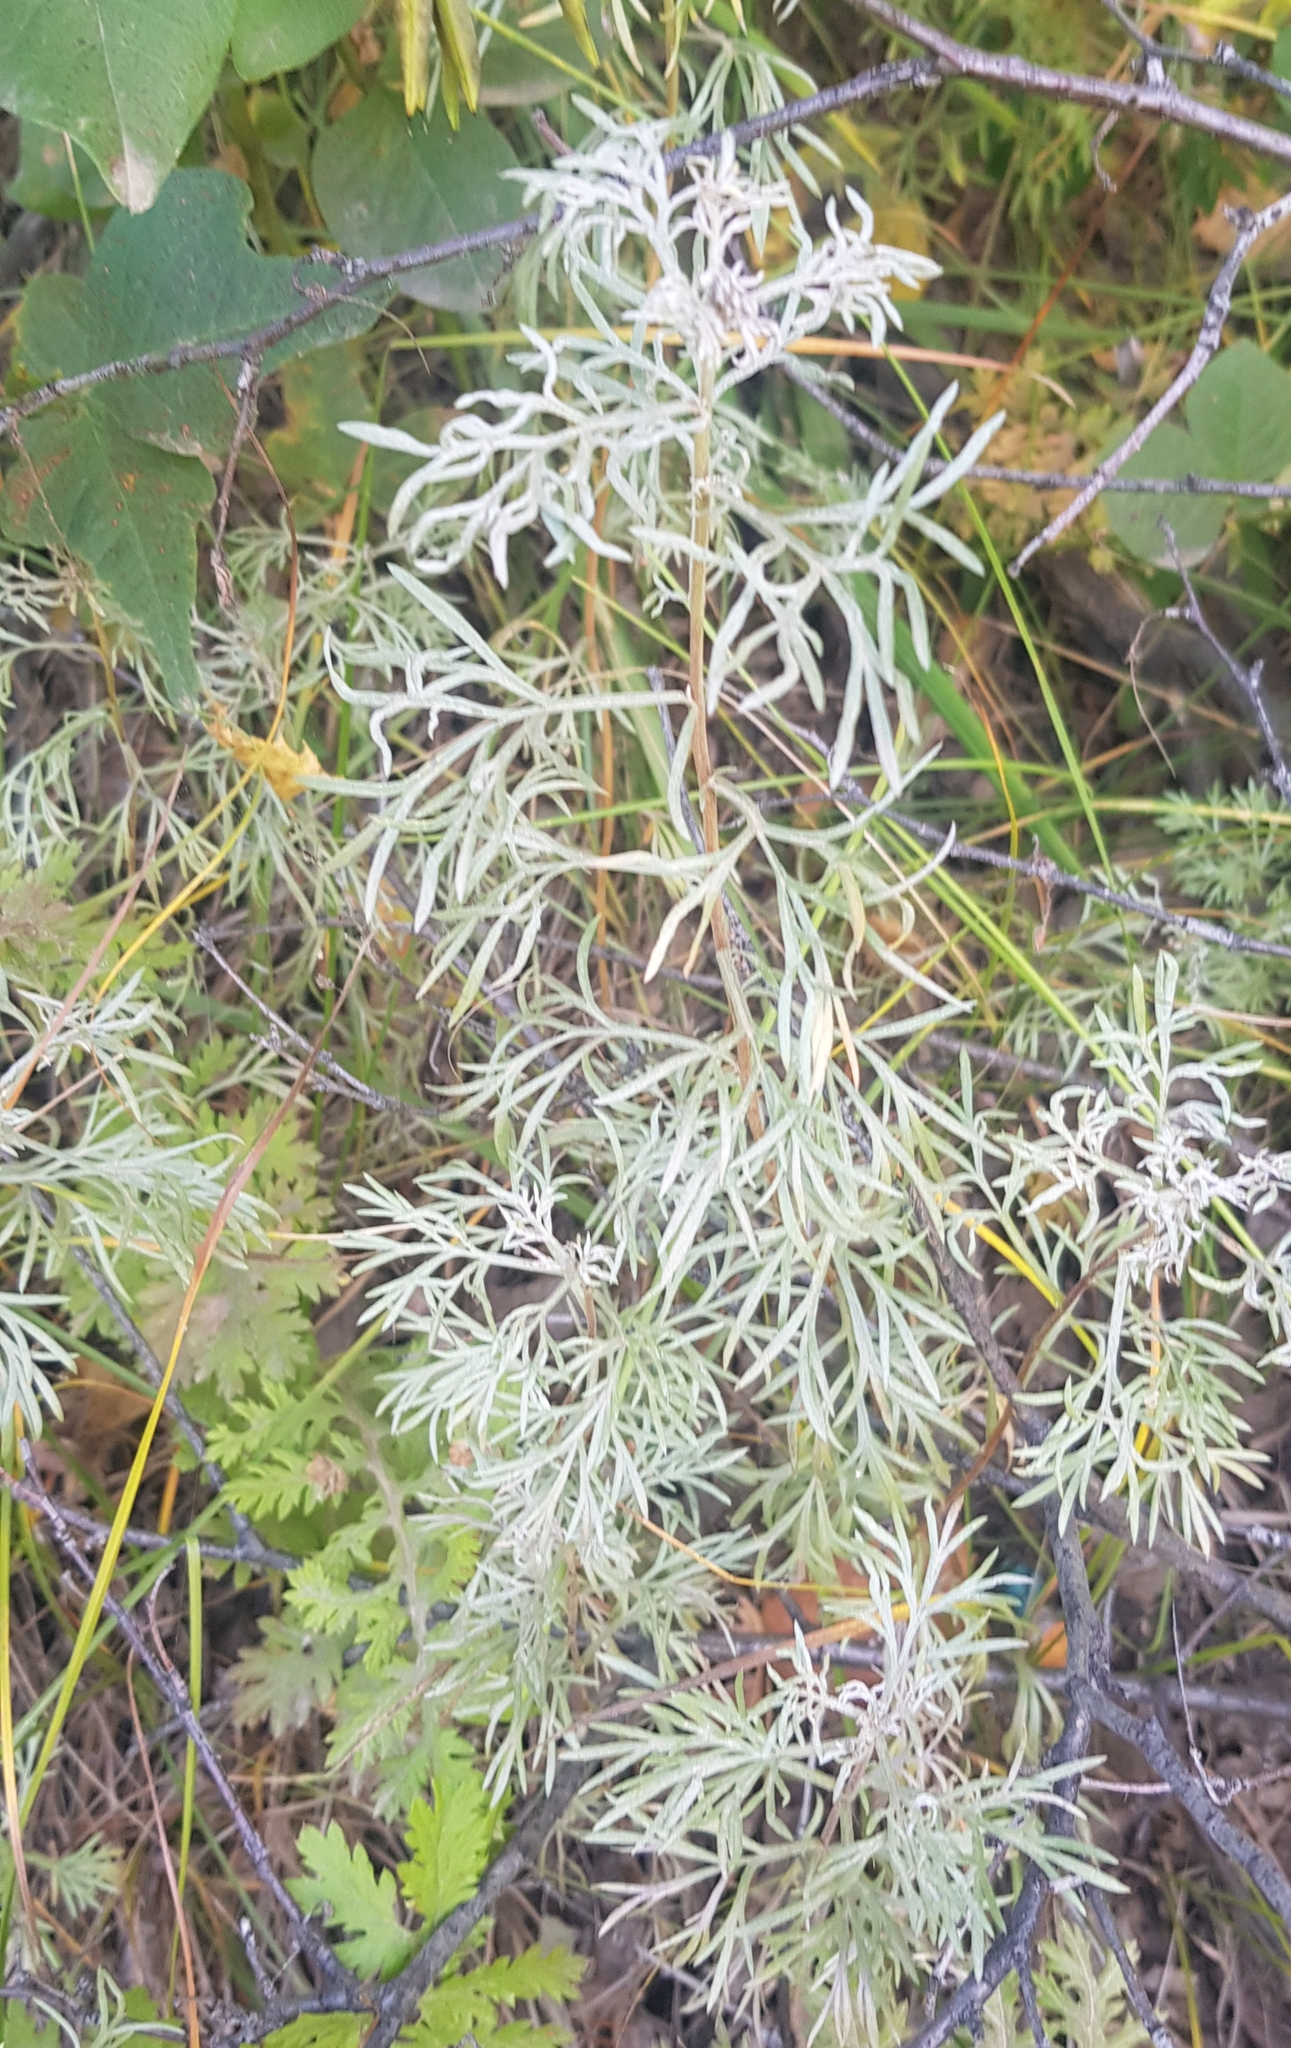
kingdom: Plantae
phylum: Tracheophyta
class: Magnoliopsida
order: Asterales
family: Asteraceae
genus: Artemisia
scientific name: Artemisia sericea
